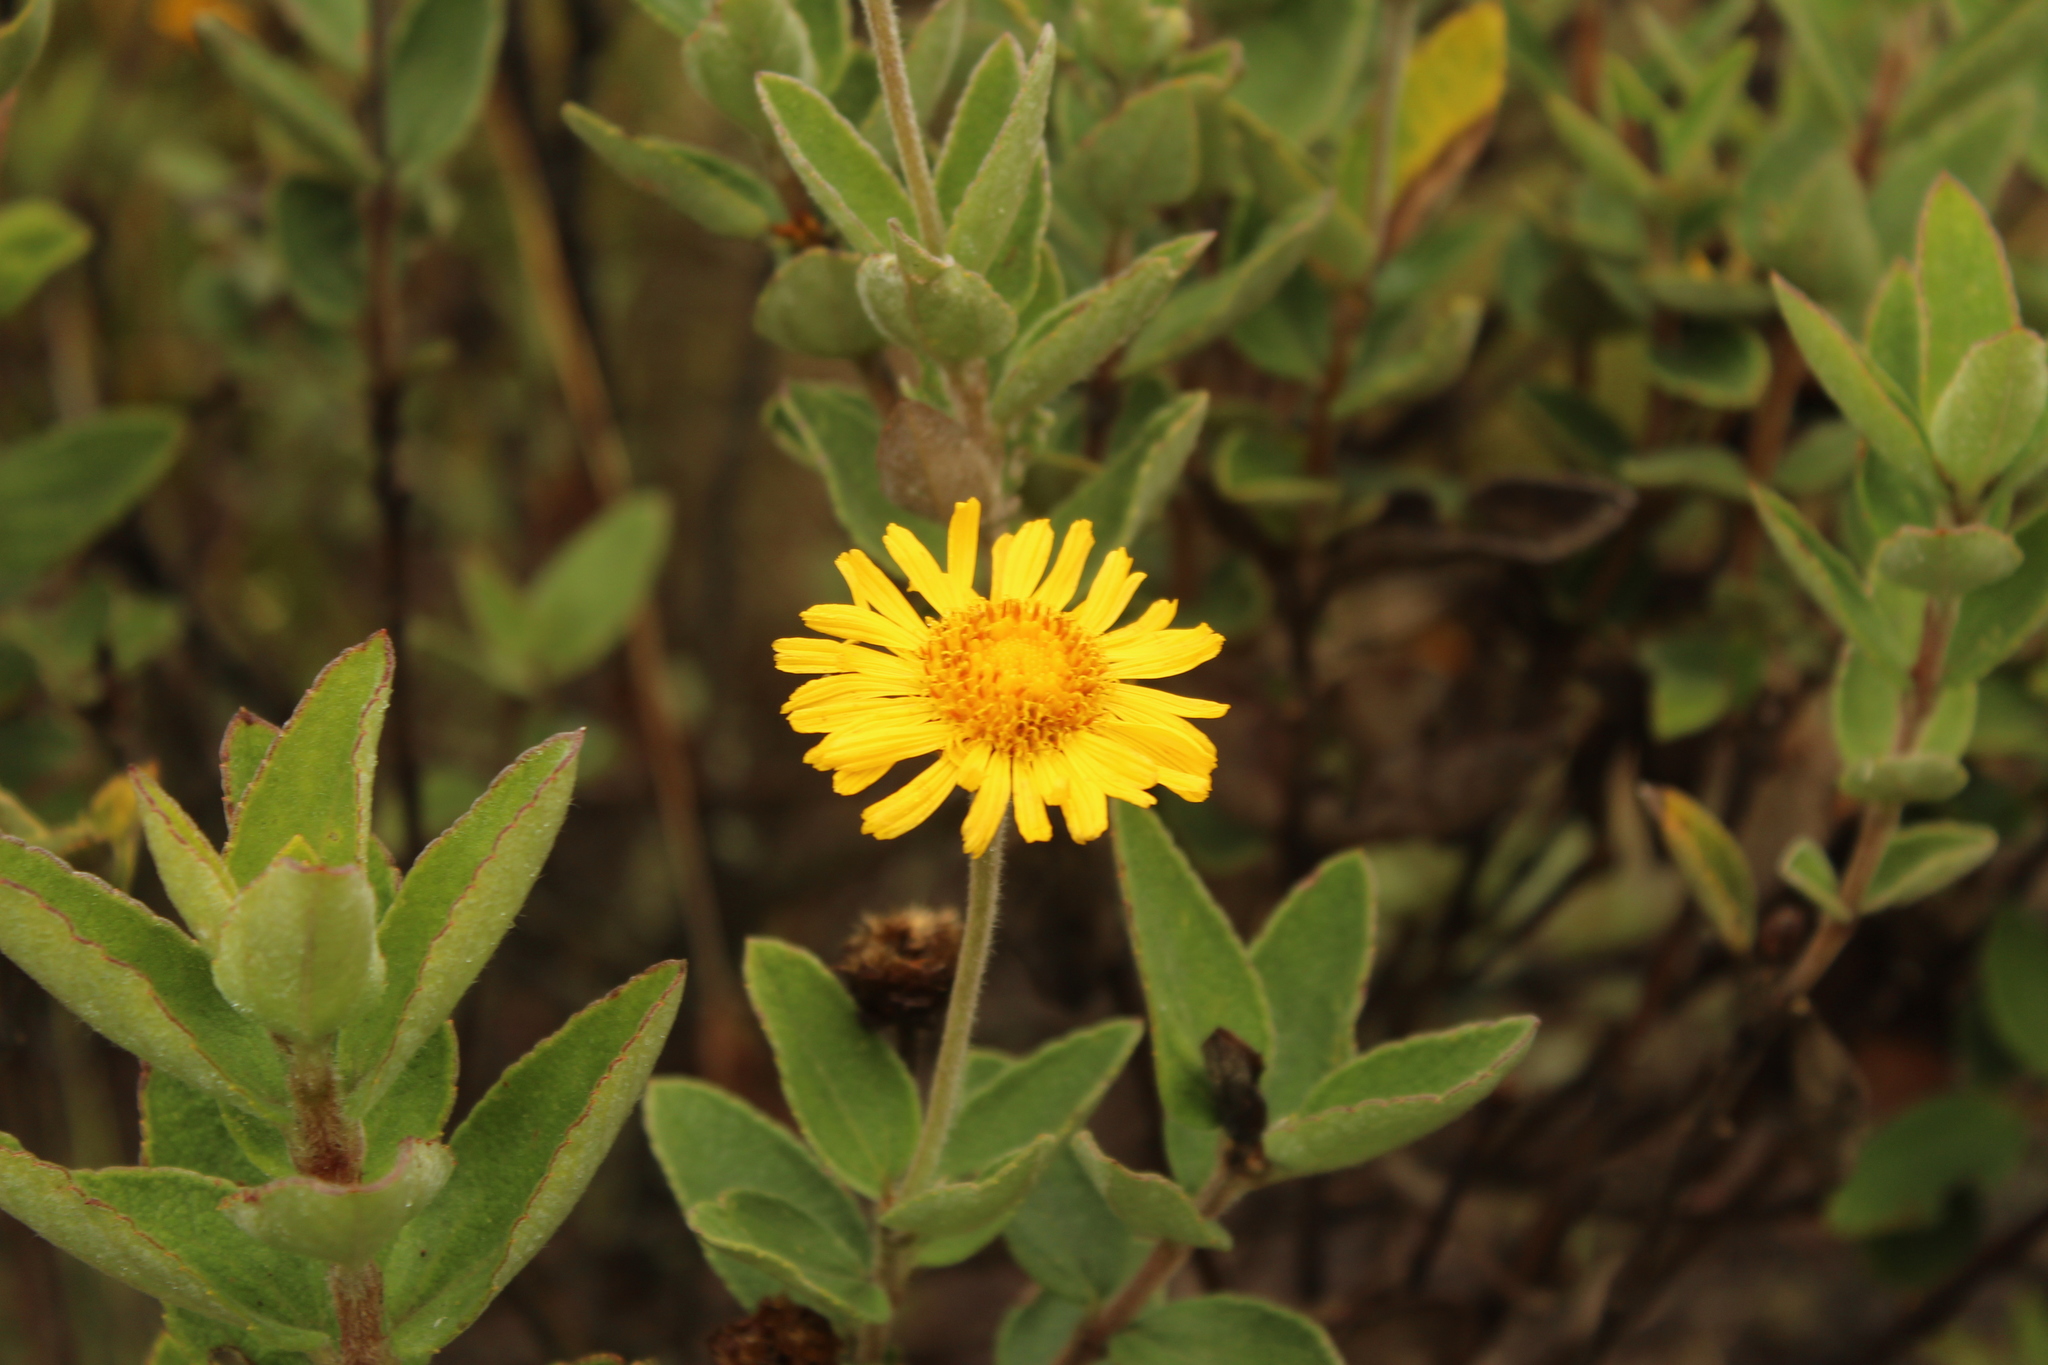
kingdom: Plantae
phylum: Tracheophyta
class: Magnoliopsida
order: Asterales
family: Asteraceae
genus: Calea
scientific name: Calea peruviana
